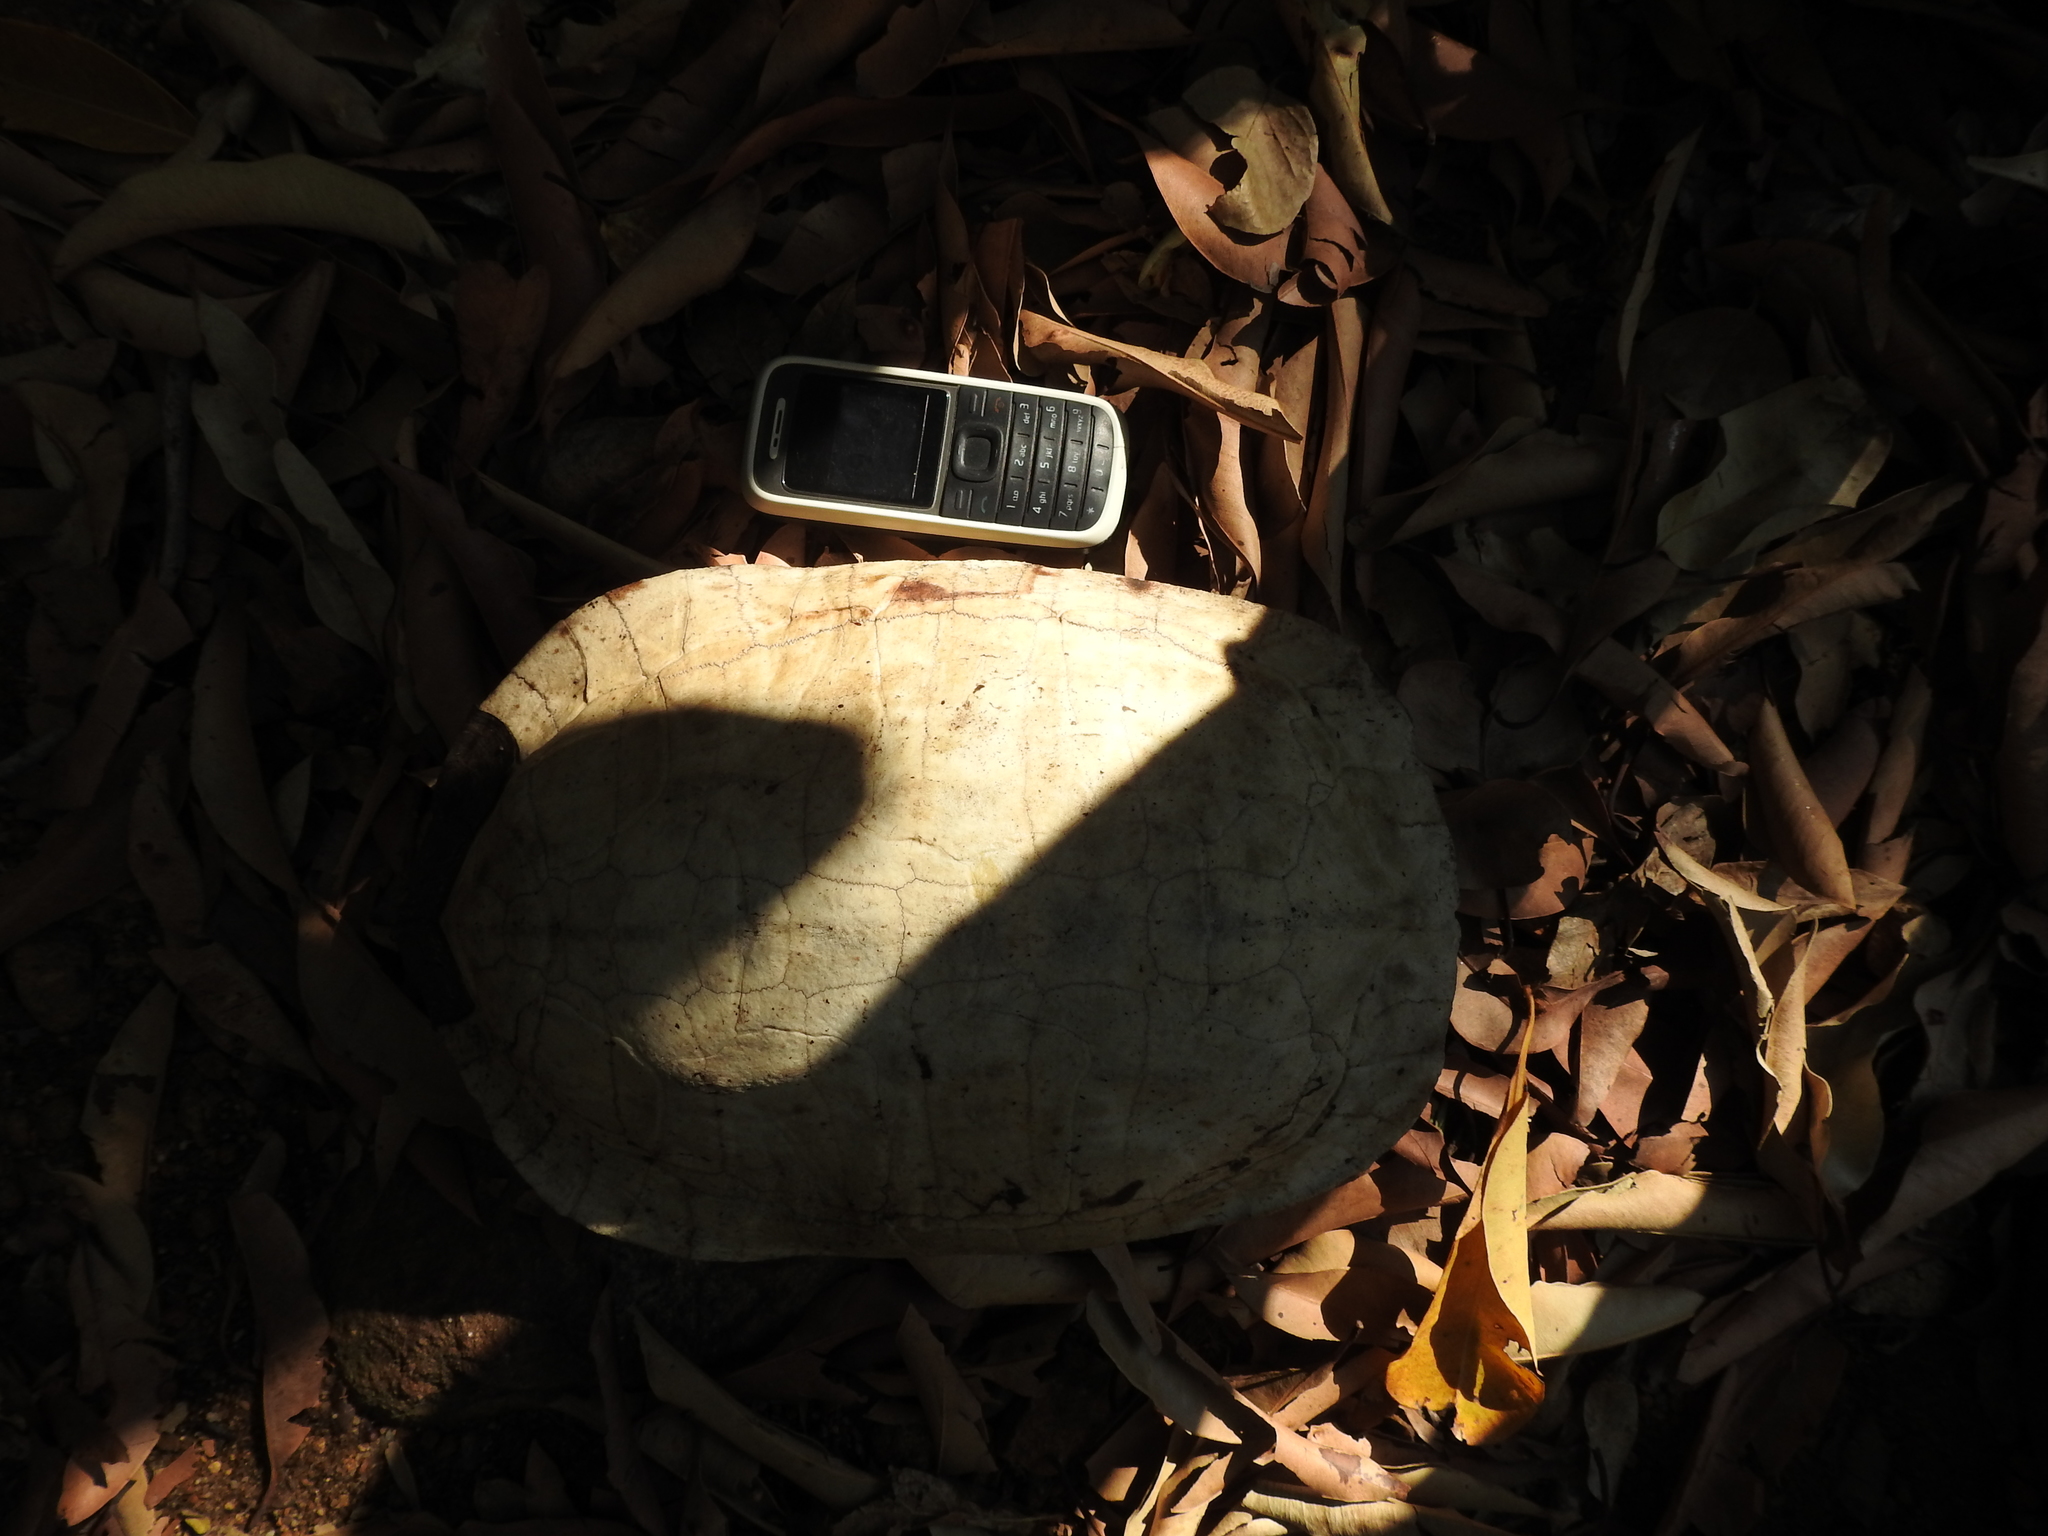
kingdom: Animalia
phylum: Chordata
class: Testudines
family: Geoemydidae
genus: Melanochelys
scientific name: Melanochelys trijuga
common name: Indian black turtle
